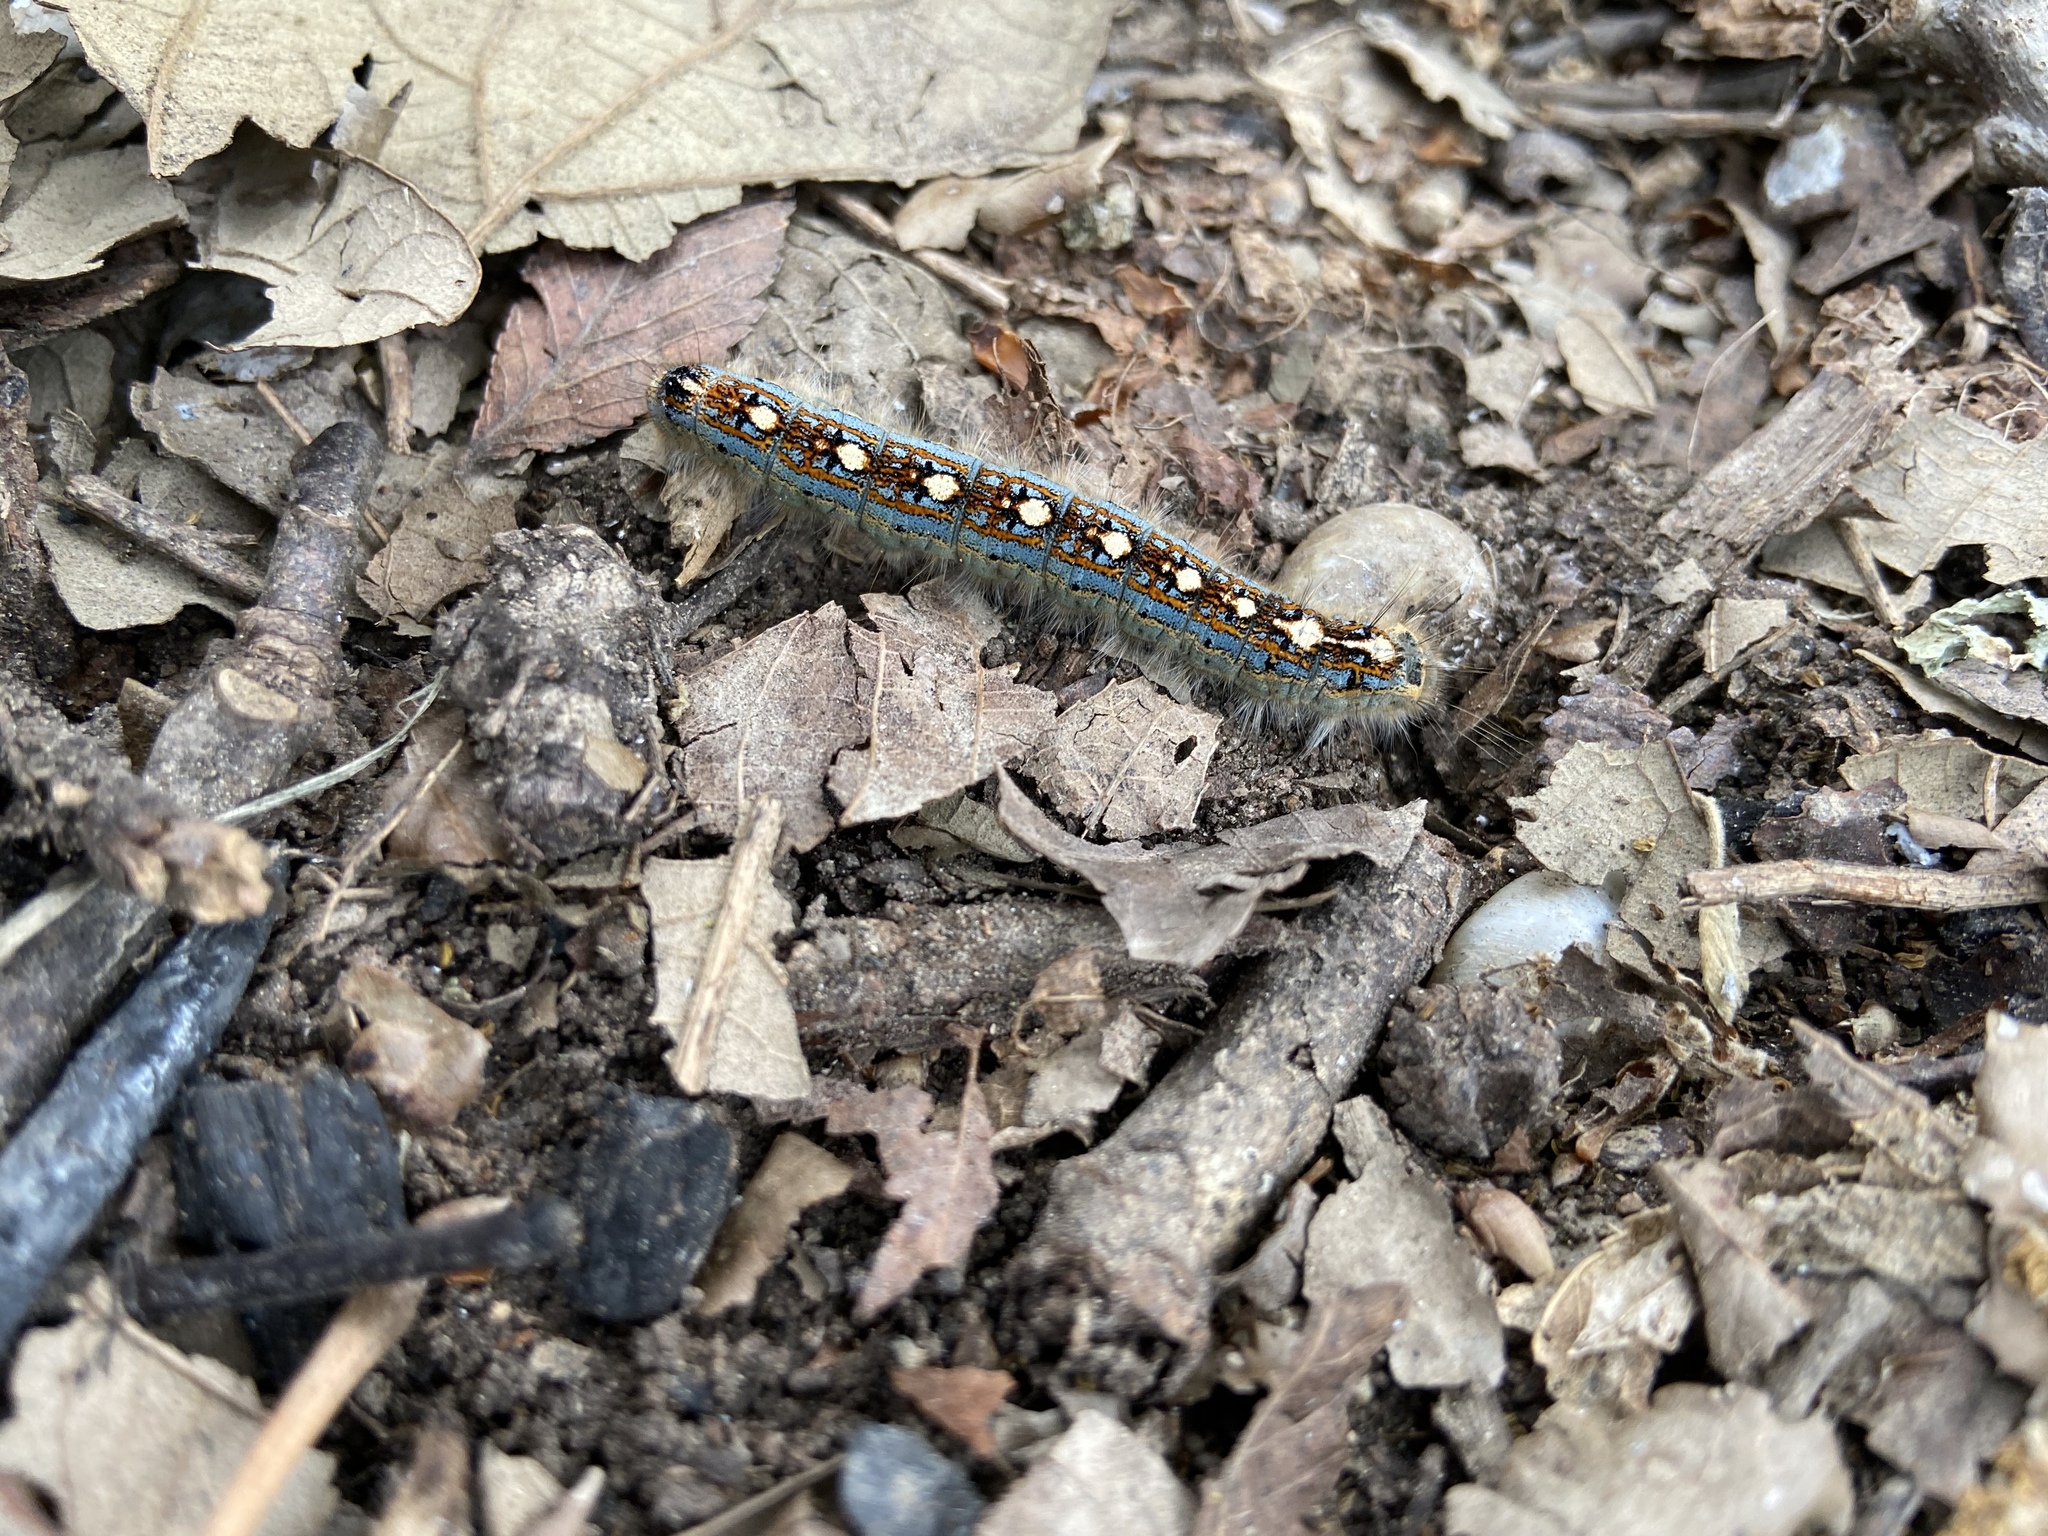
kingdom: Animalia
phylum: Arthropoda
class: Insecta
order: Lepidoptera
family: Lasiocampidae
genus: Malacosoma
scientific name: Malacosoma disstria
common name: Forest tent caterpillar
